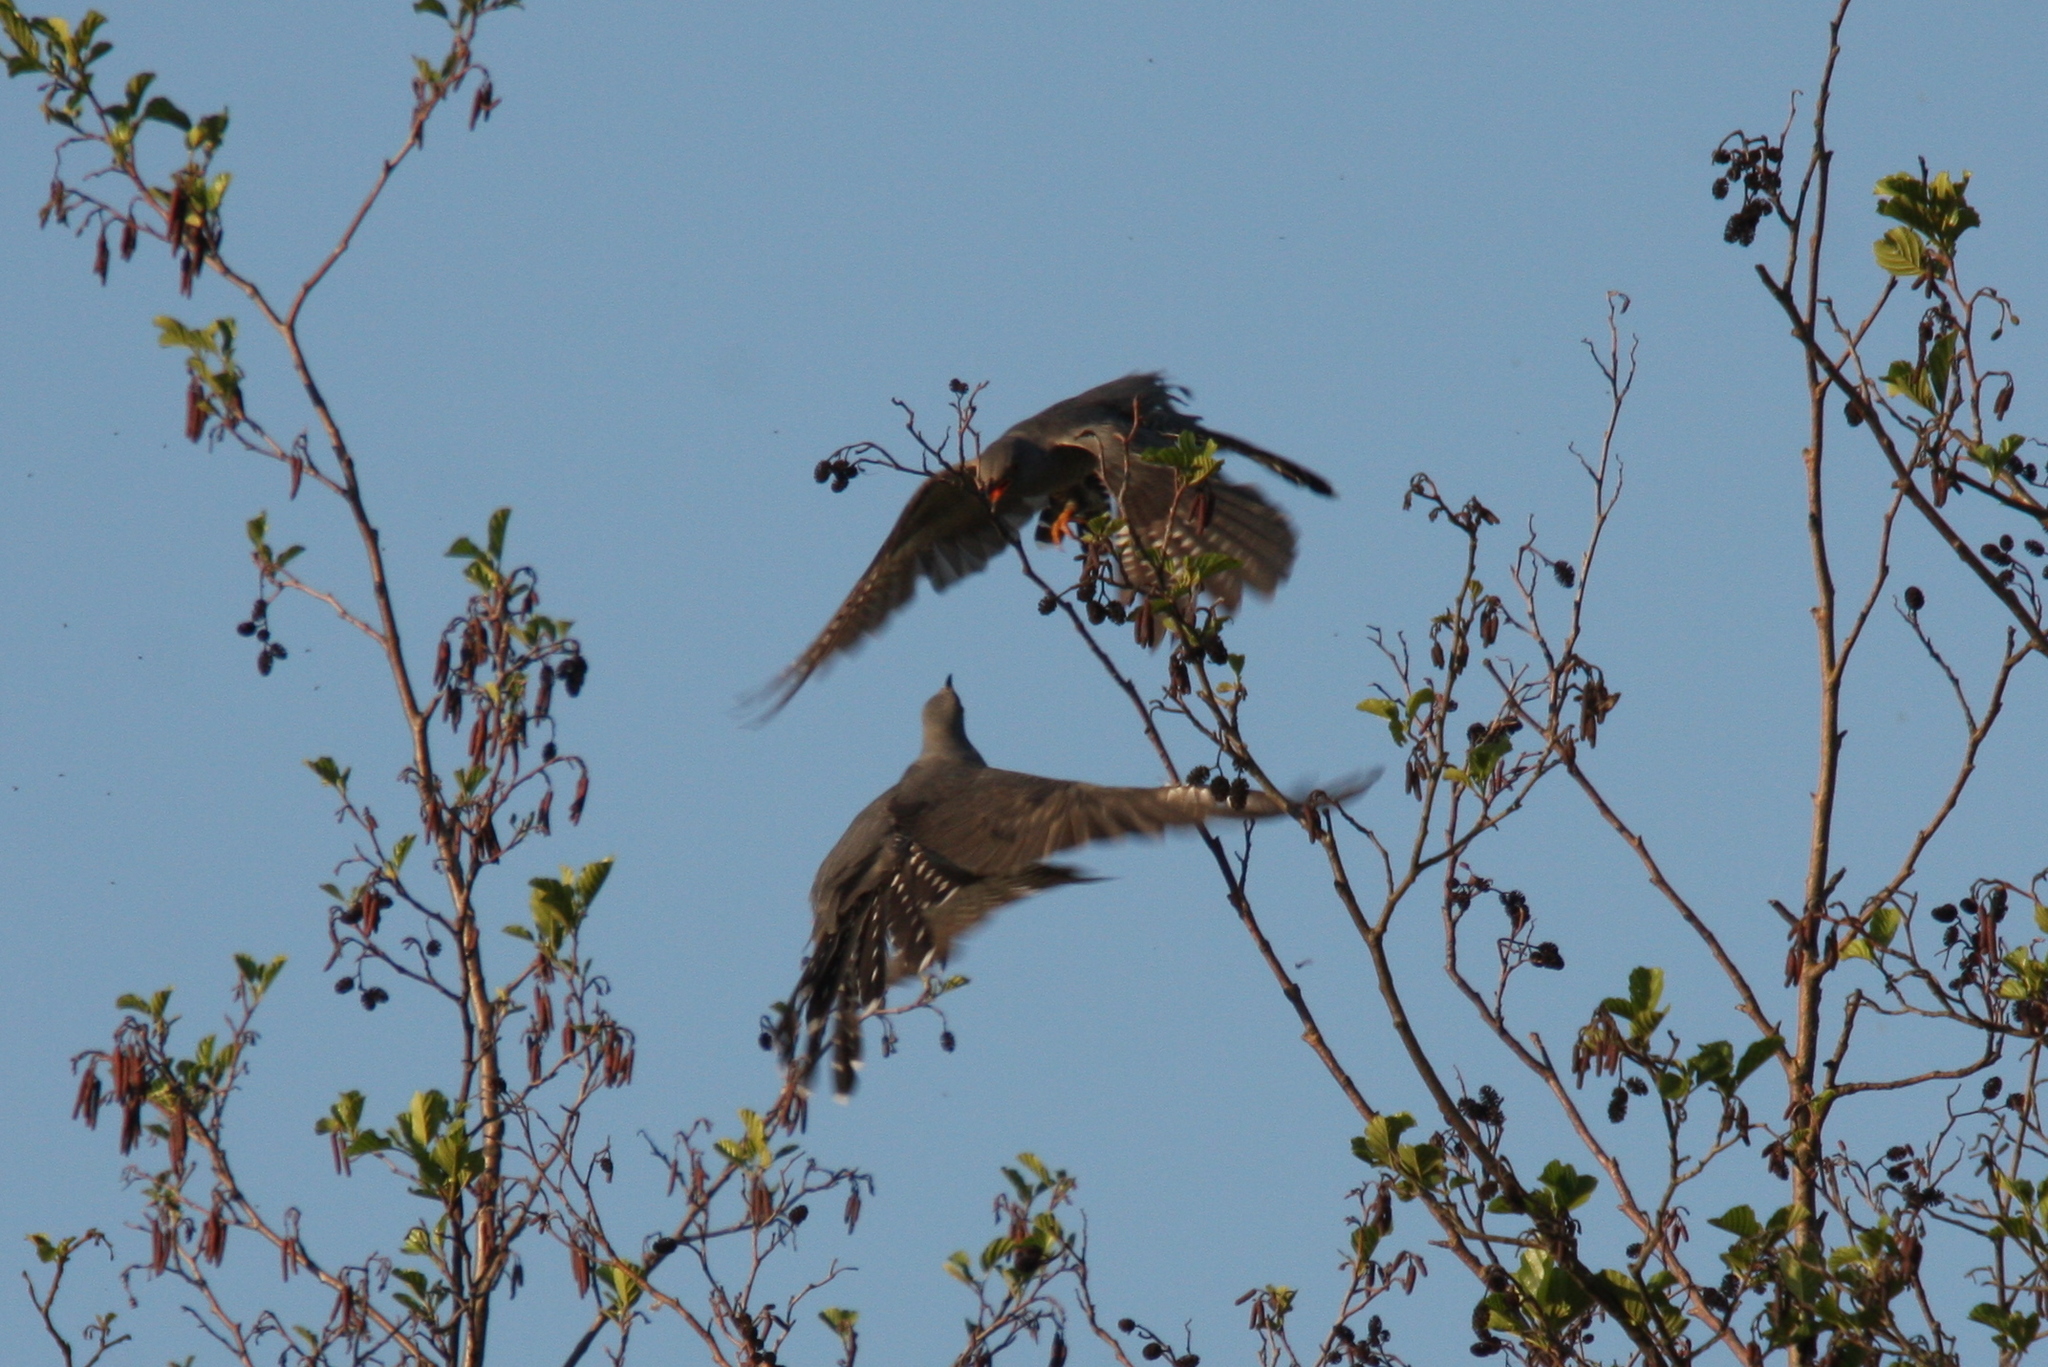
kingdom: Animalia
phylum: Chordata
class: Aves
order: Cuculiformes
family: Cuculidae
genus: Cuculus
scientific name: Cuculus canorus
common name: Common cuckoo
